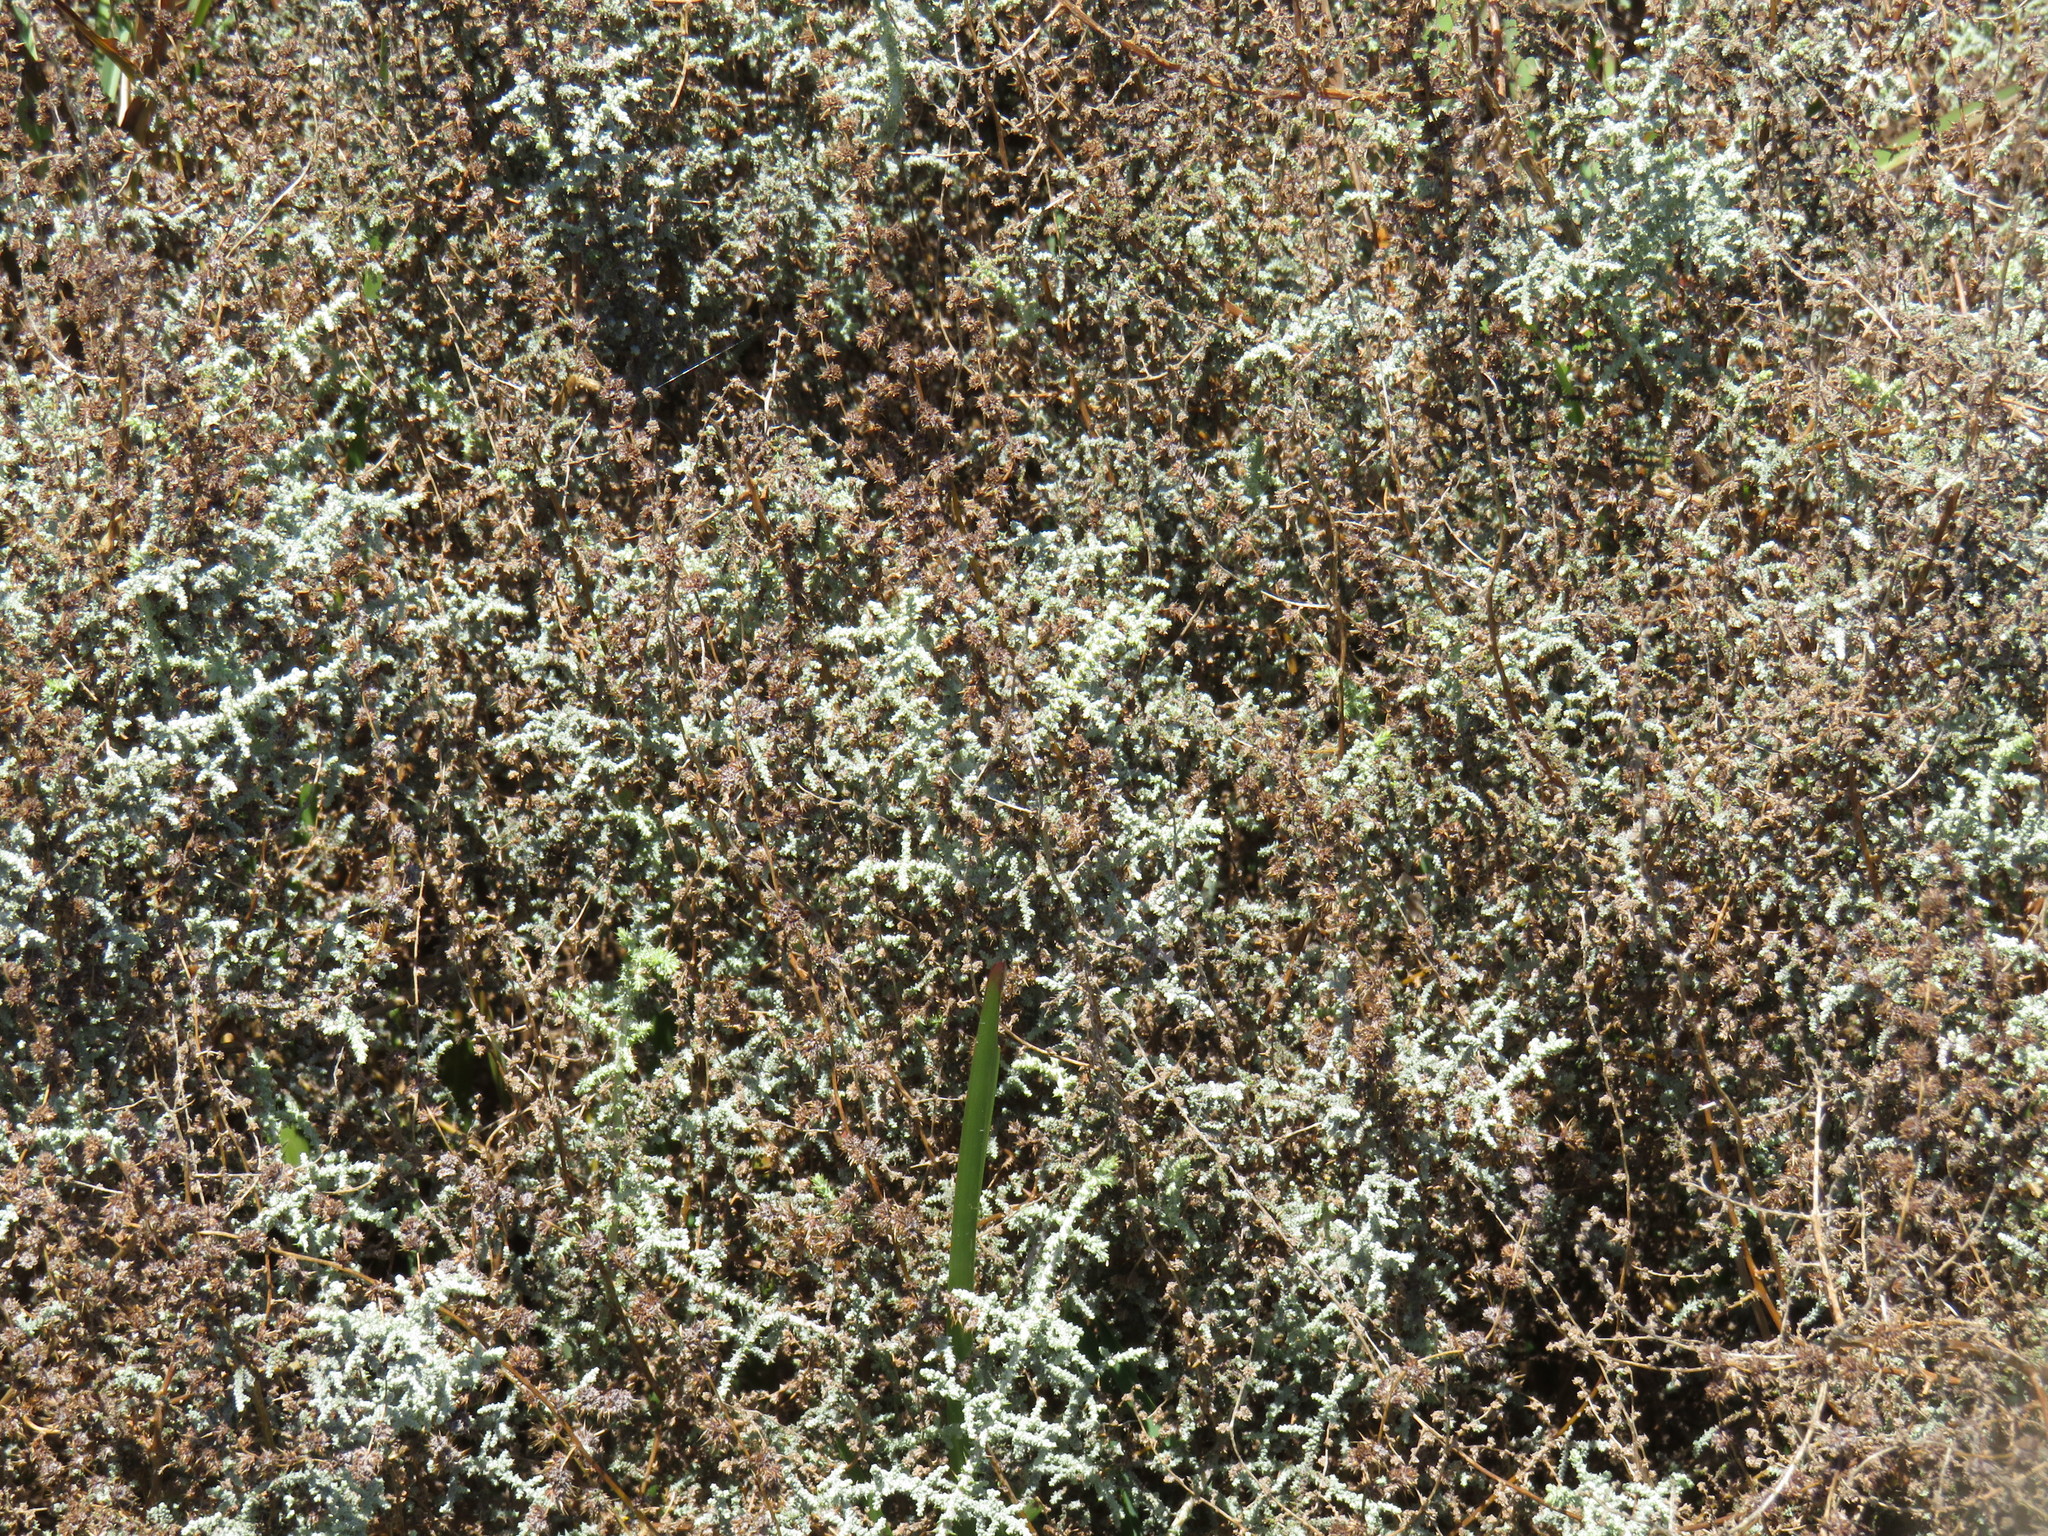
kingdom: Plantae
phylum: Tracheophyta
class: Magnoliopsida
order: Asterales
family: Asteraceae
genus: Seriphium
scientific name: Seriphium plumosum
